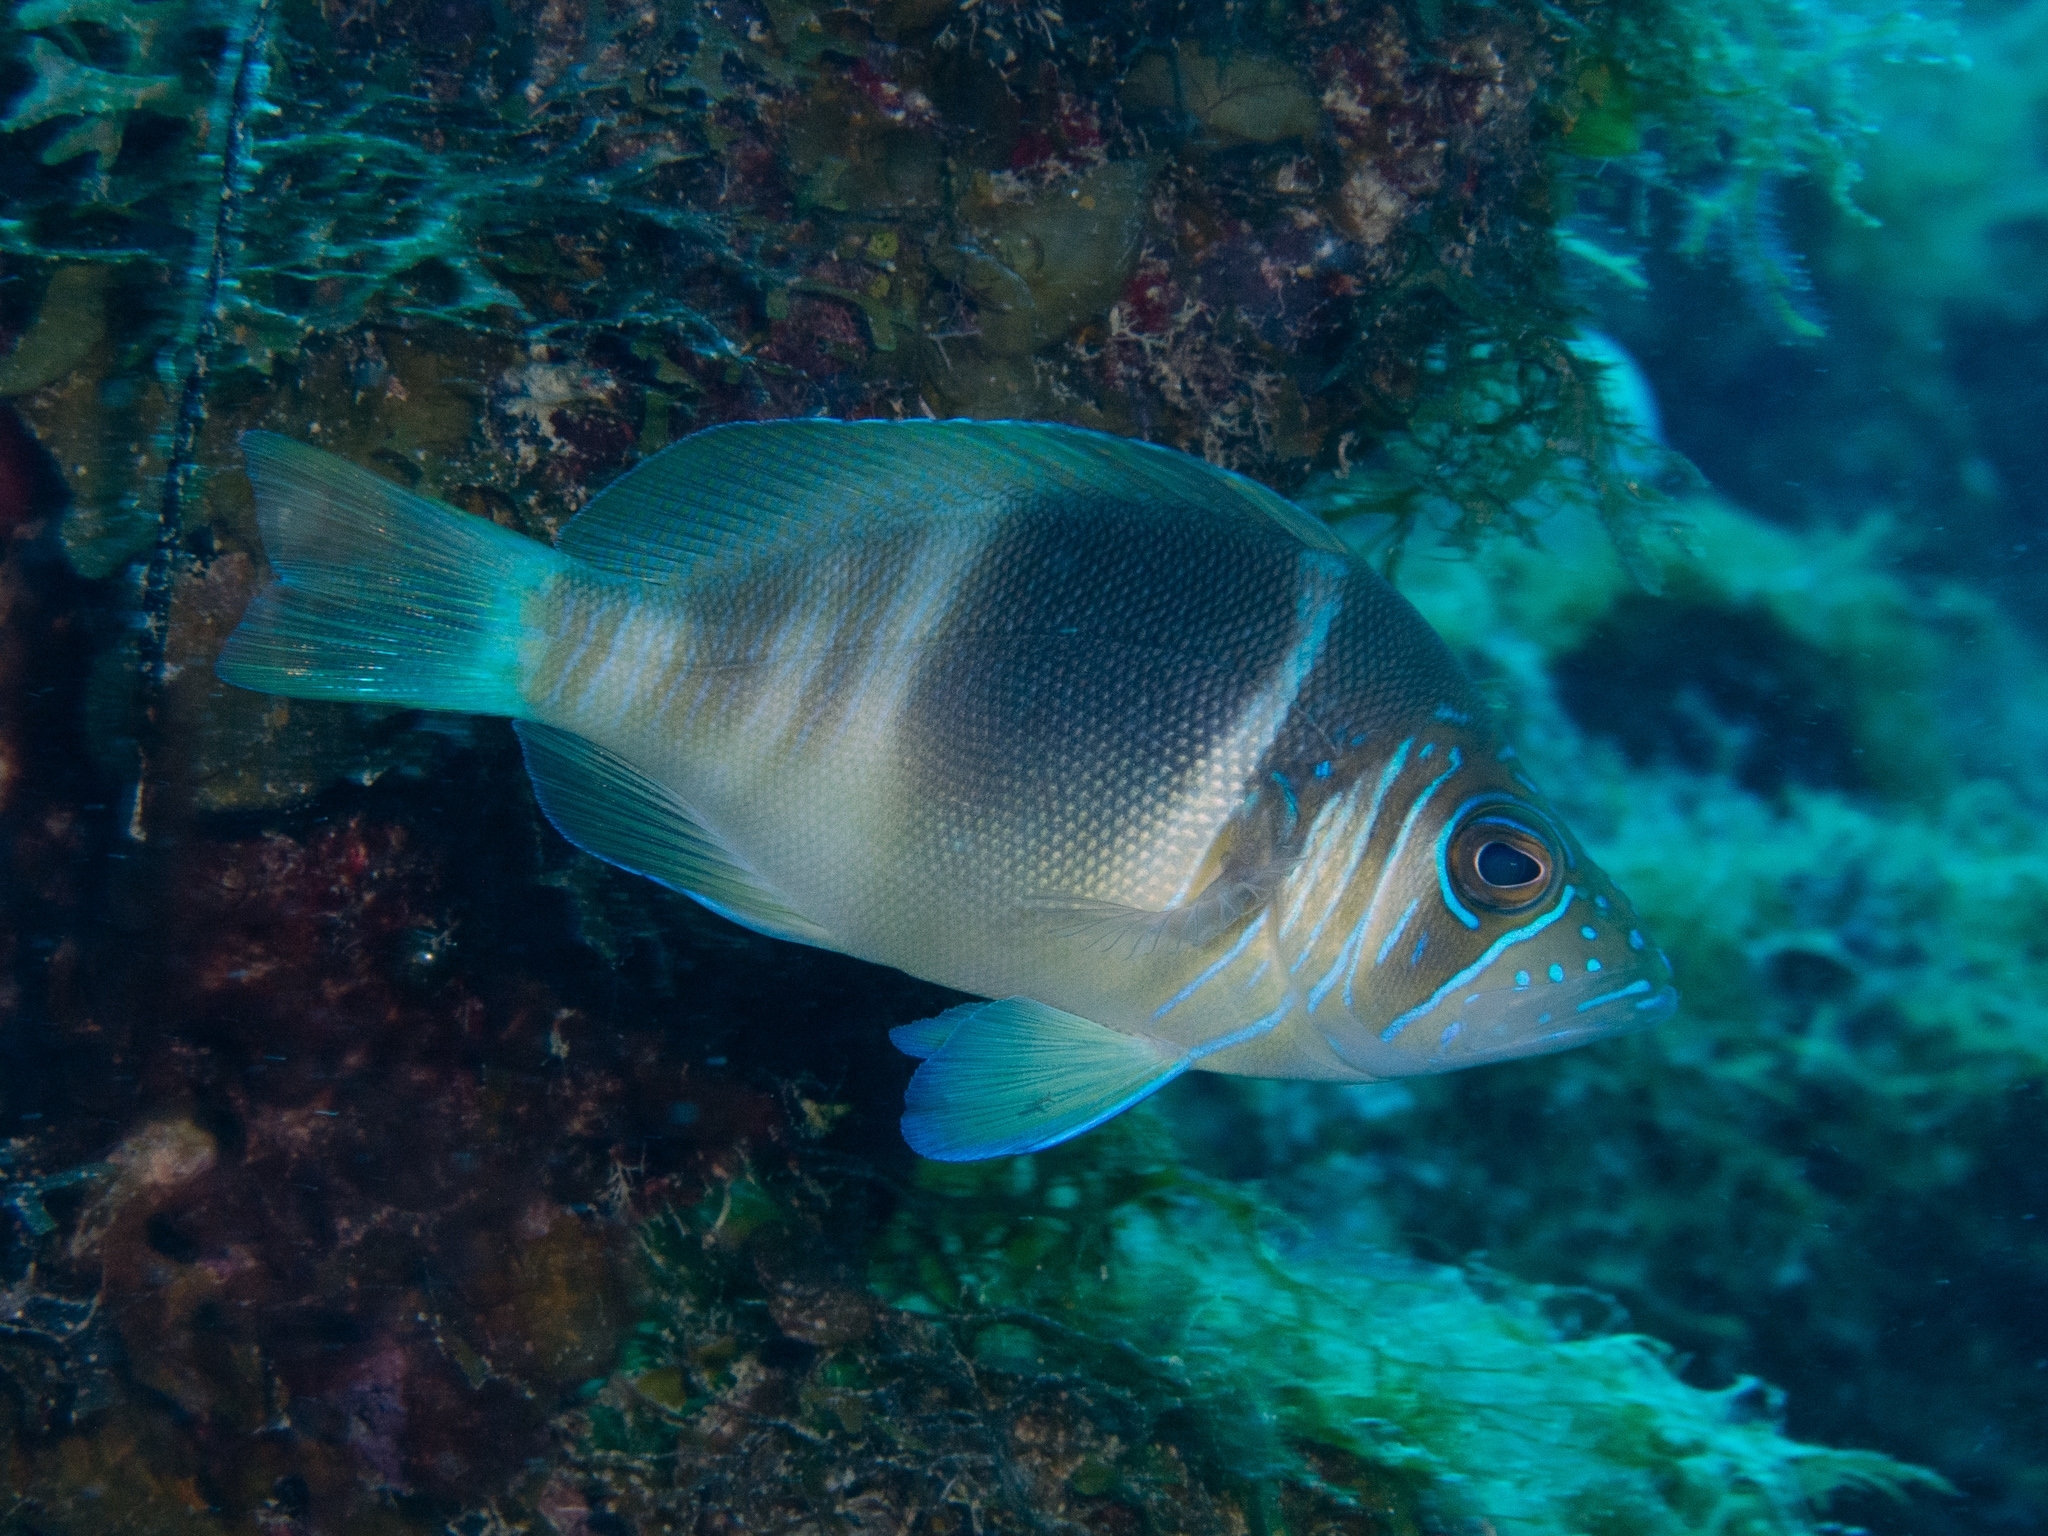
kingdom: Animalia
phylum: Chordata
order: Perciformes
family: Serranidae
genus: Hypoplectrus
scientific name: Hypoplectrus puella
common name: Barred hamlet
